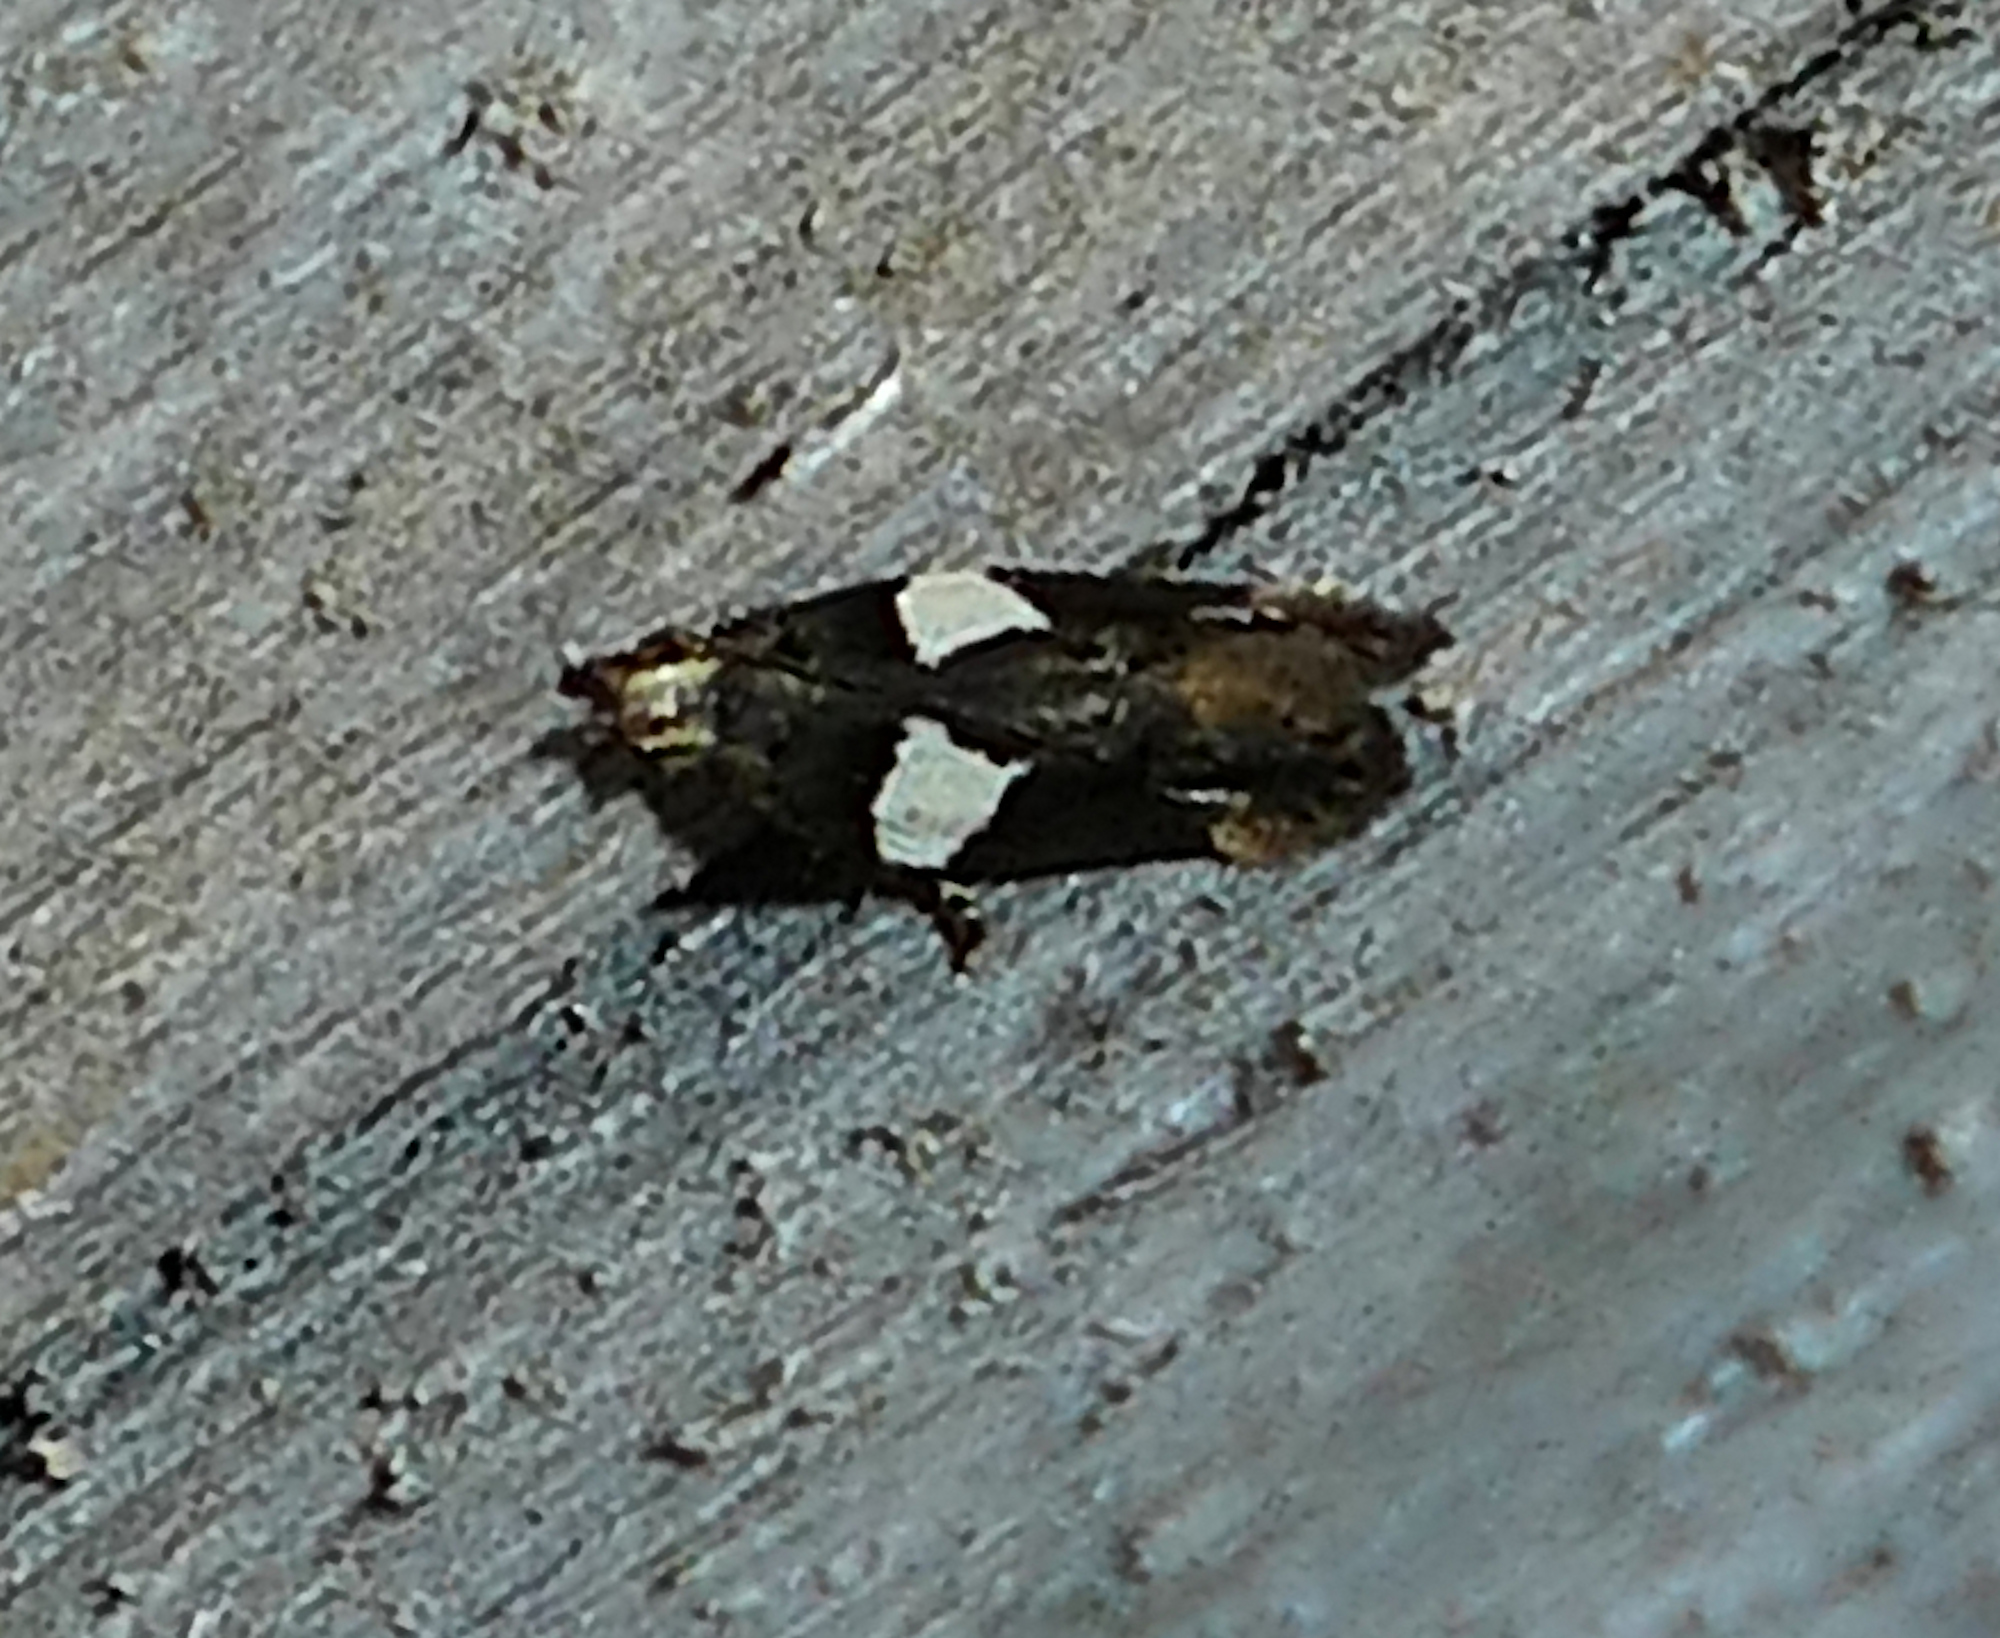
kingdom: Animalia
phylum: Arthropoda
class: Insecta
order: Lepidoptera
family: Gelechiidae
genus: Friseria
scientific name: Friseria acaciella
